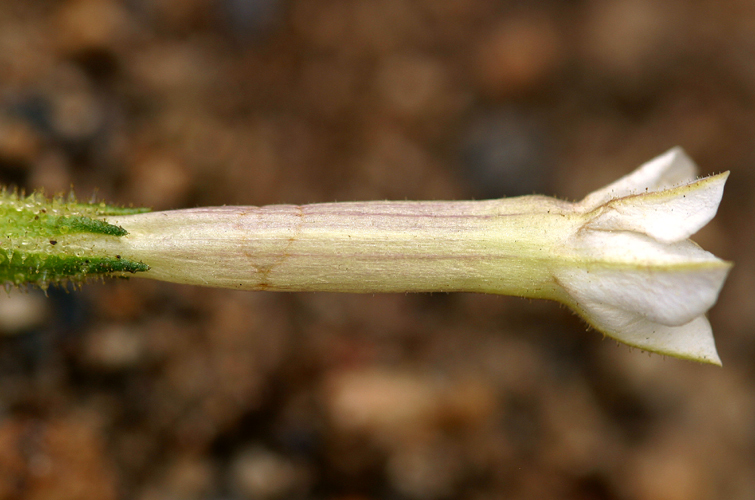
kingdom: Plantae
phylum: Tracheophyta
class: Magnoliopsida
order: Solanales
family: Solanaceae
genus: Nicotiana
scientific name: Nicotiana attenuata
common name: Coyote tobacco
